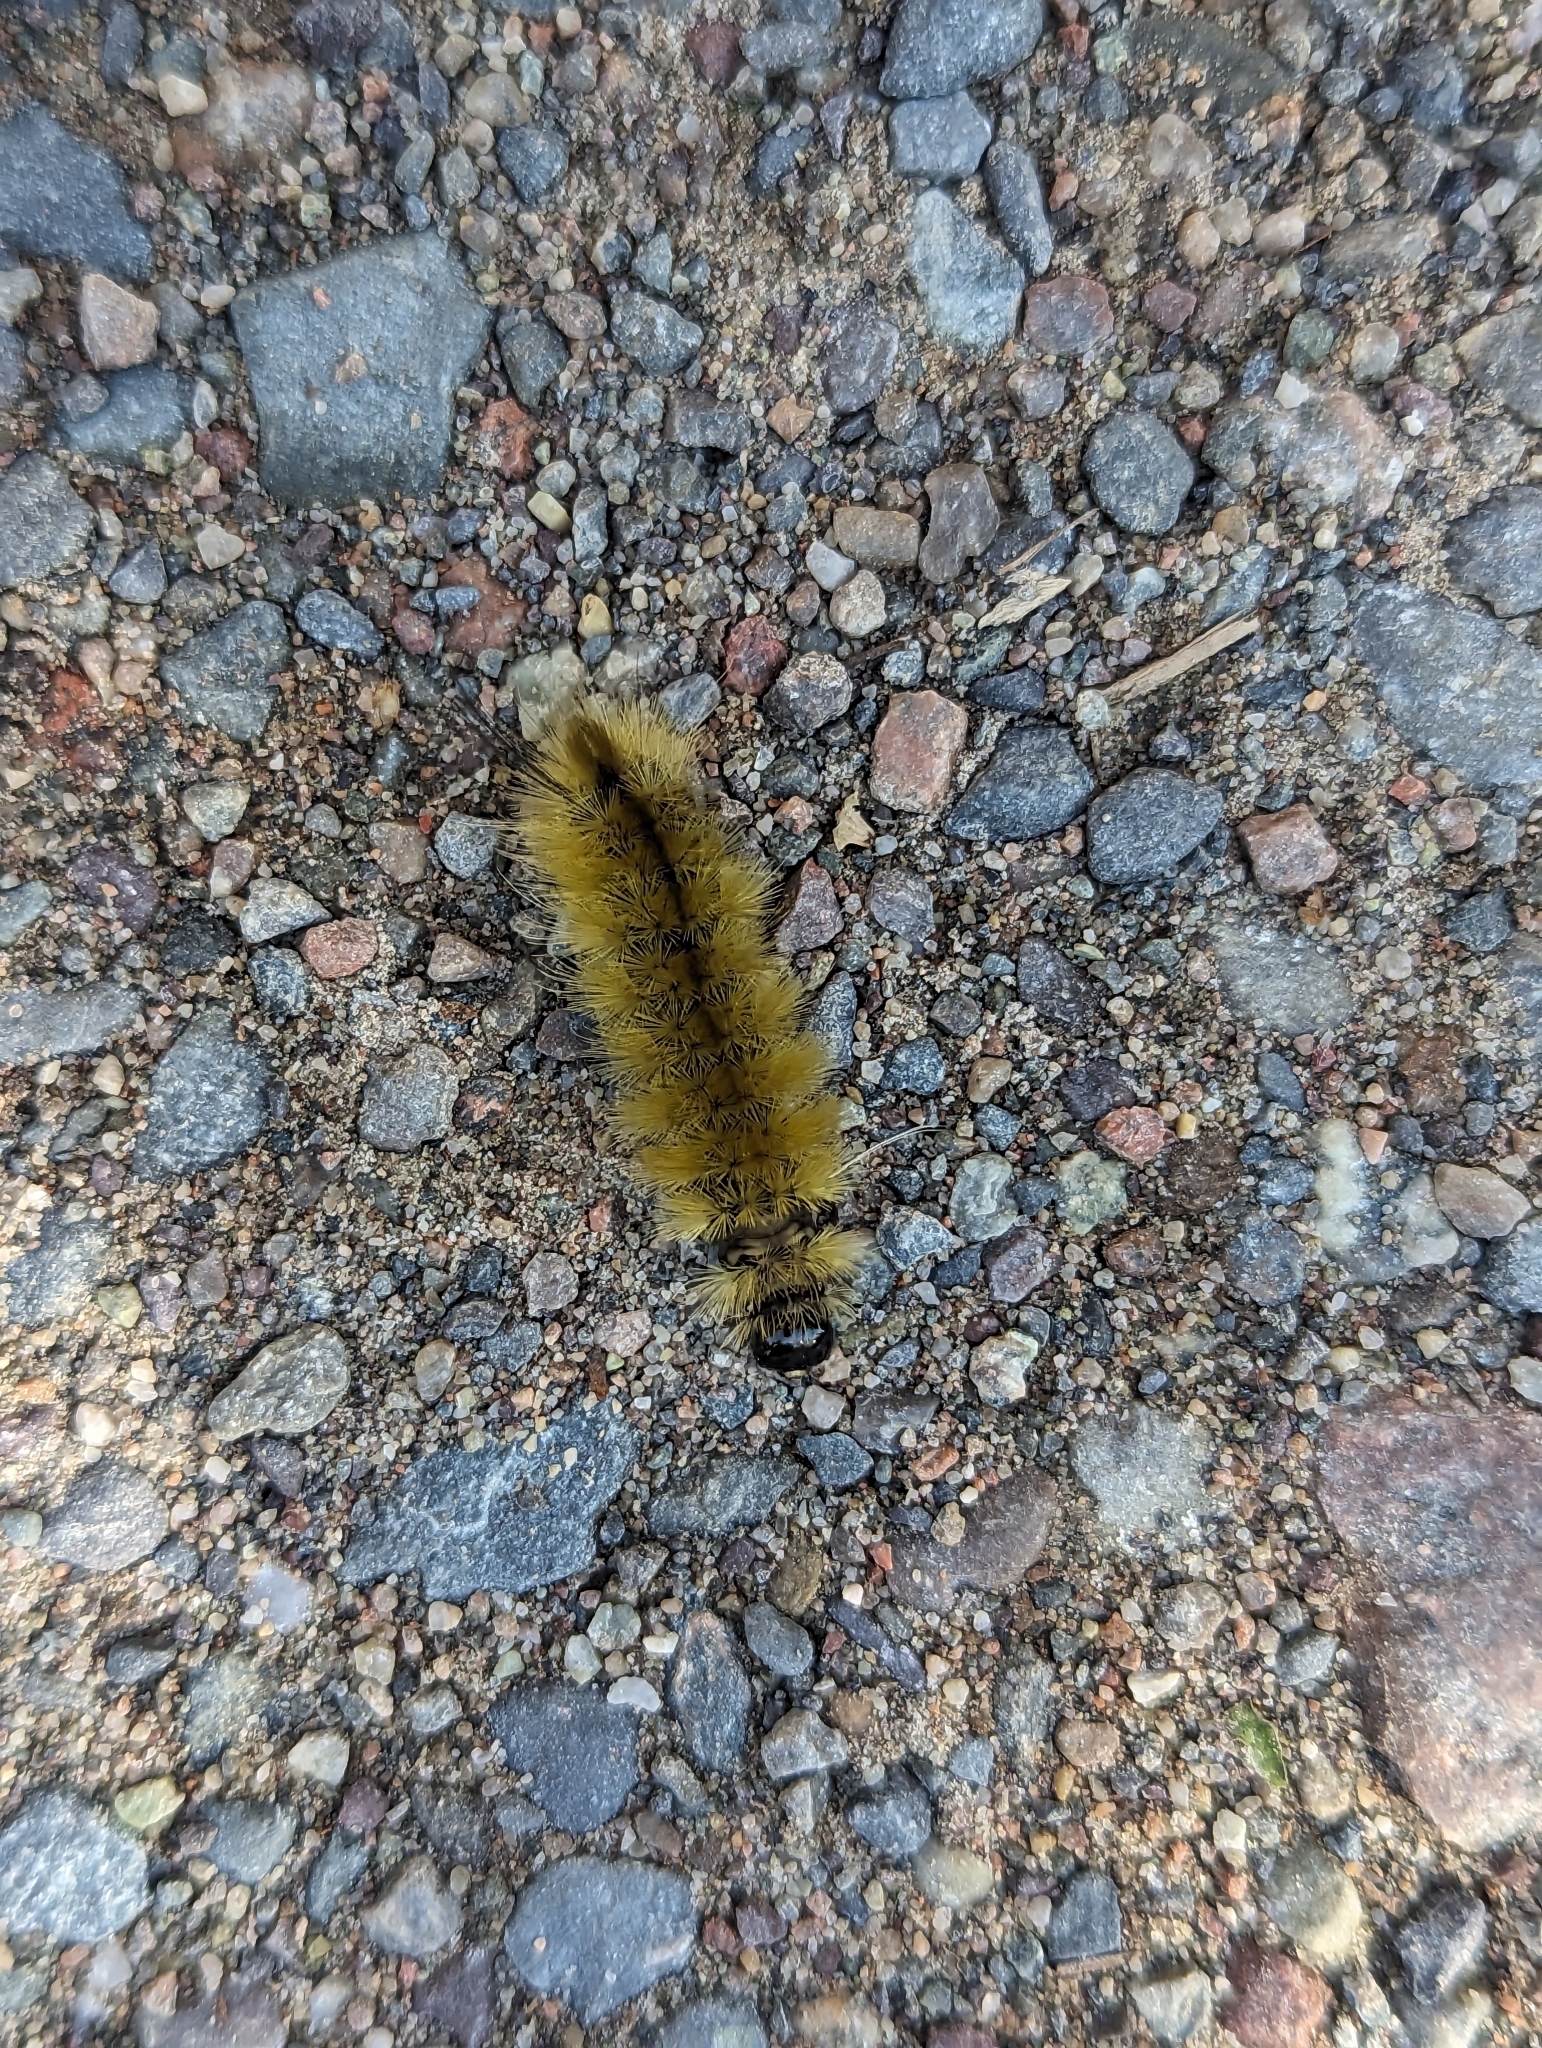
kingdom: Animalia
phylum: Arthropoda
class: Insecta
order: Lepidoptera
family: Erebidae
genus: Halysidota
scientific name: Halysidota tessellaris
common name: Banded tussock moth
